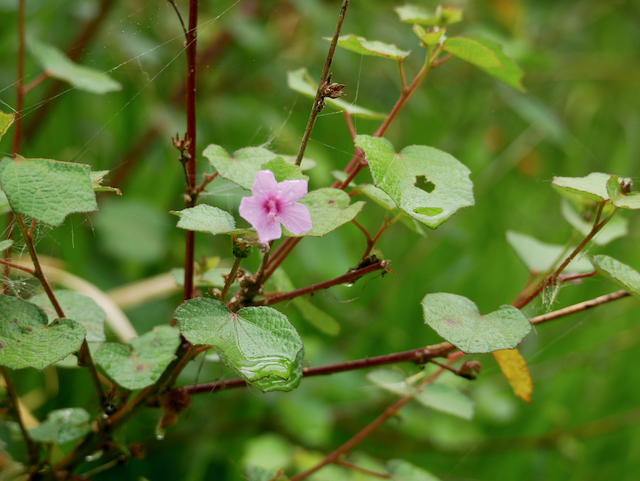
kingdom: Plantae
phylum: Tracheophyta
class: Magnoliopsida
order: Malvales
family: Malvaceae
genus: Urena
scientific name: Urena lobata
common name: Caesarweed
